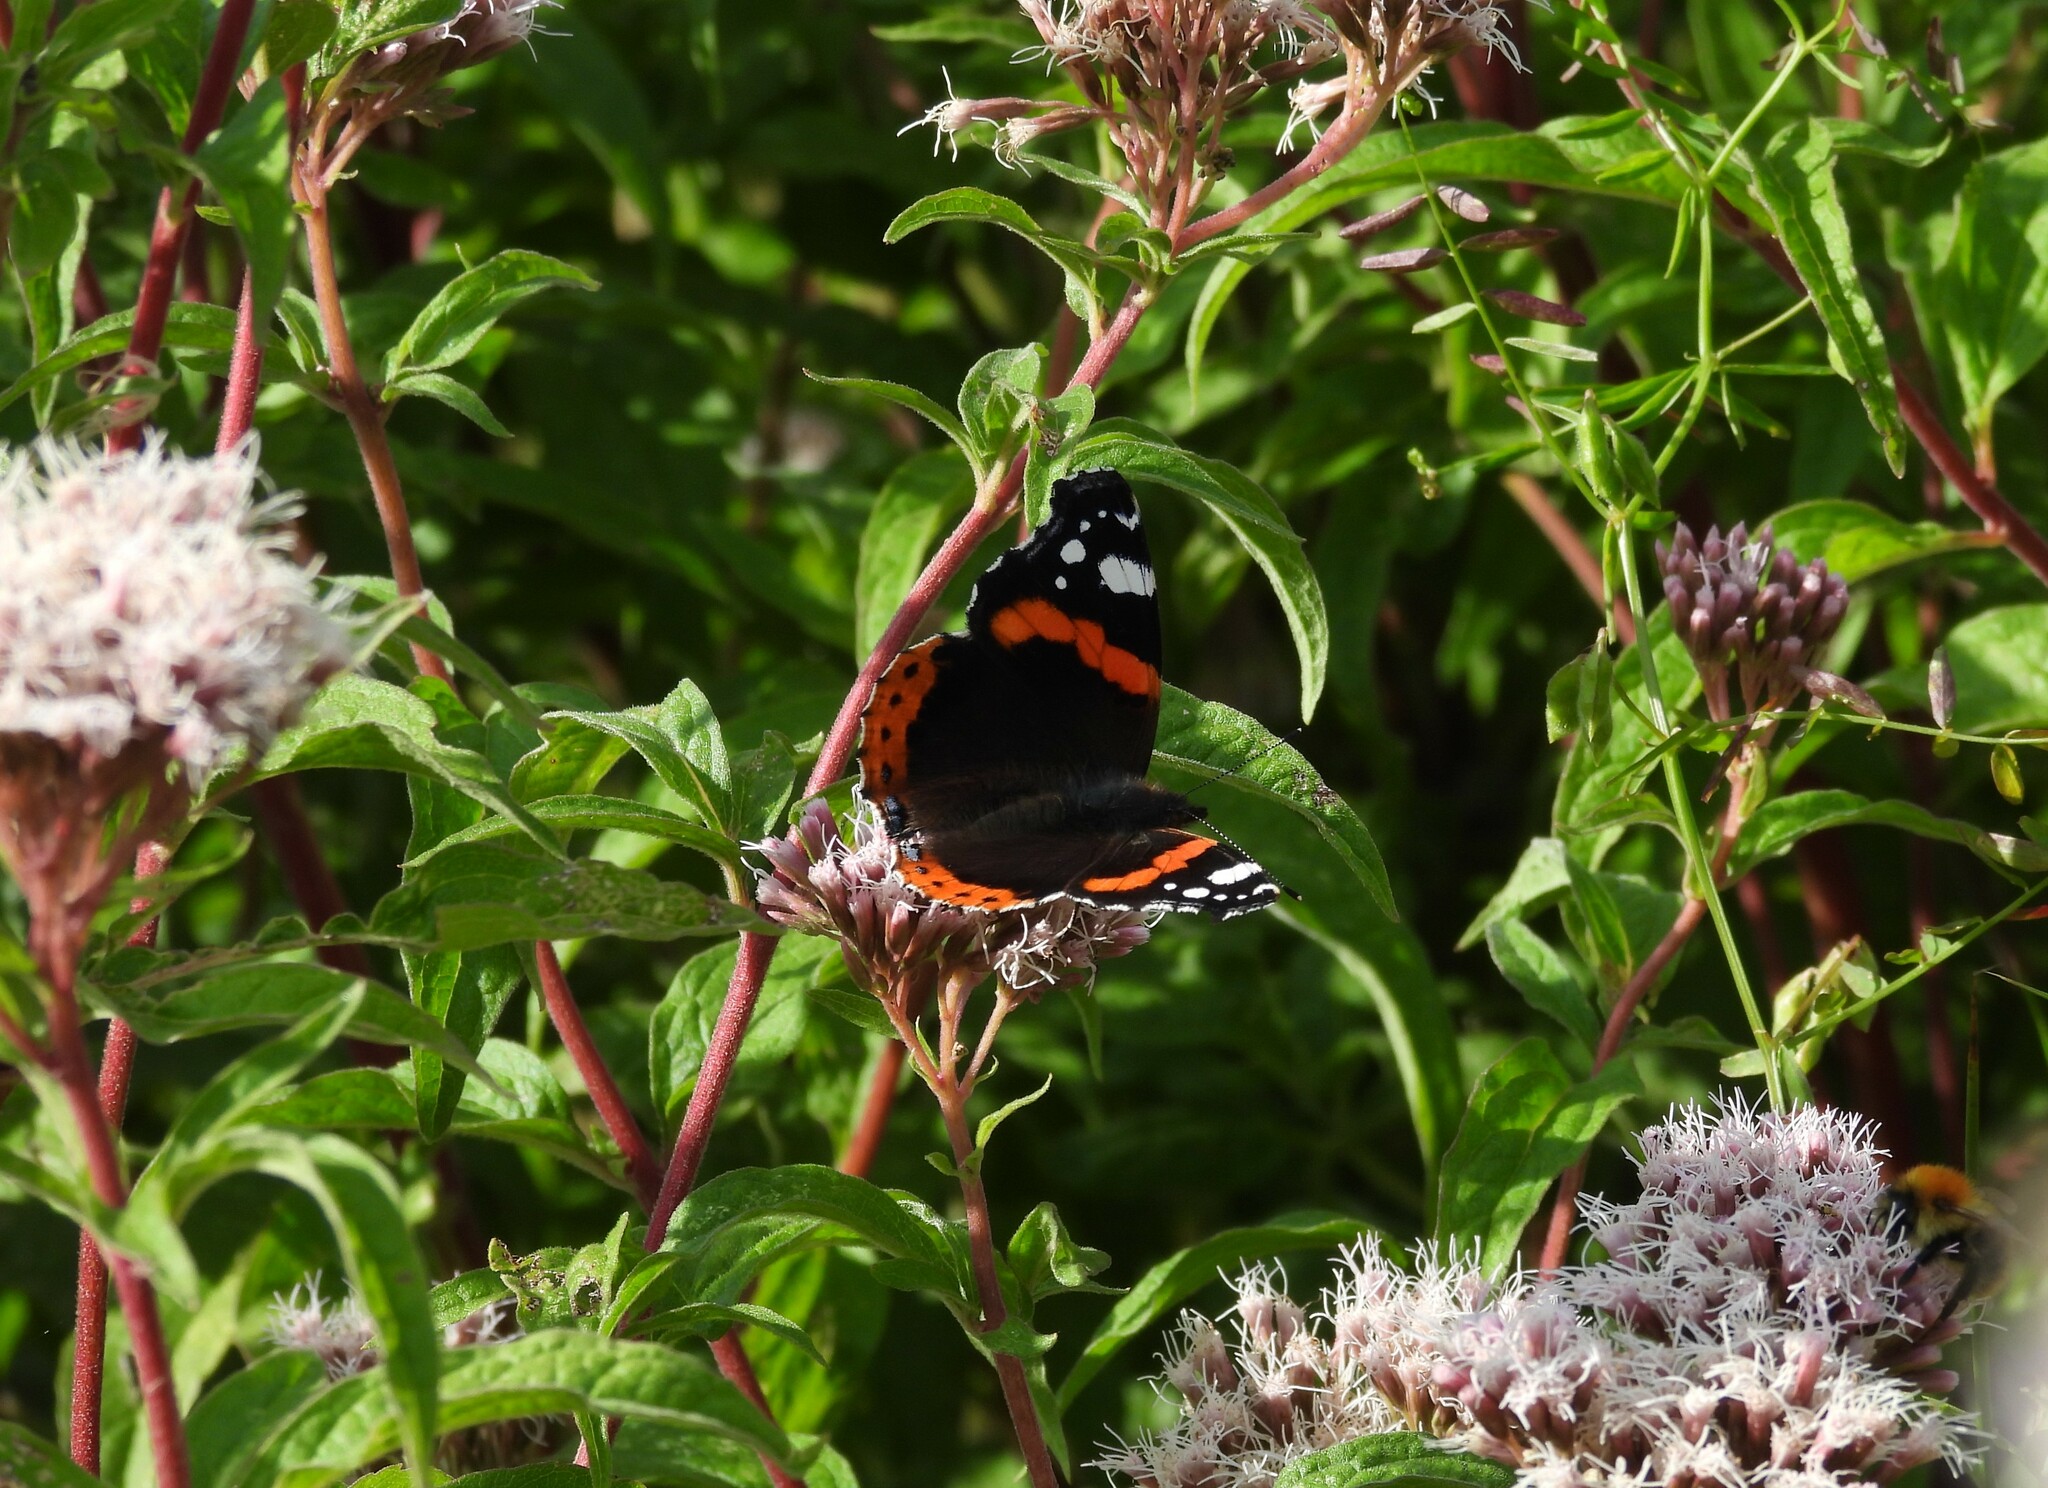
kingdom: Animalia
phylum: Arthropoda
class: Insecta
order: Lepidoptera
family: Nymphalidae
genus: Vanessa
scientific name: Vanessa atalanta
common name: Red admiral
